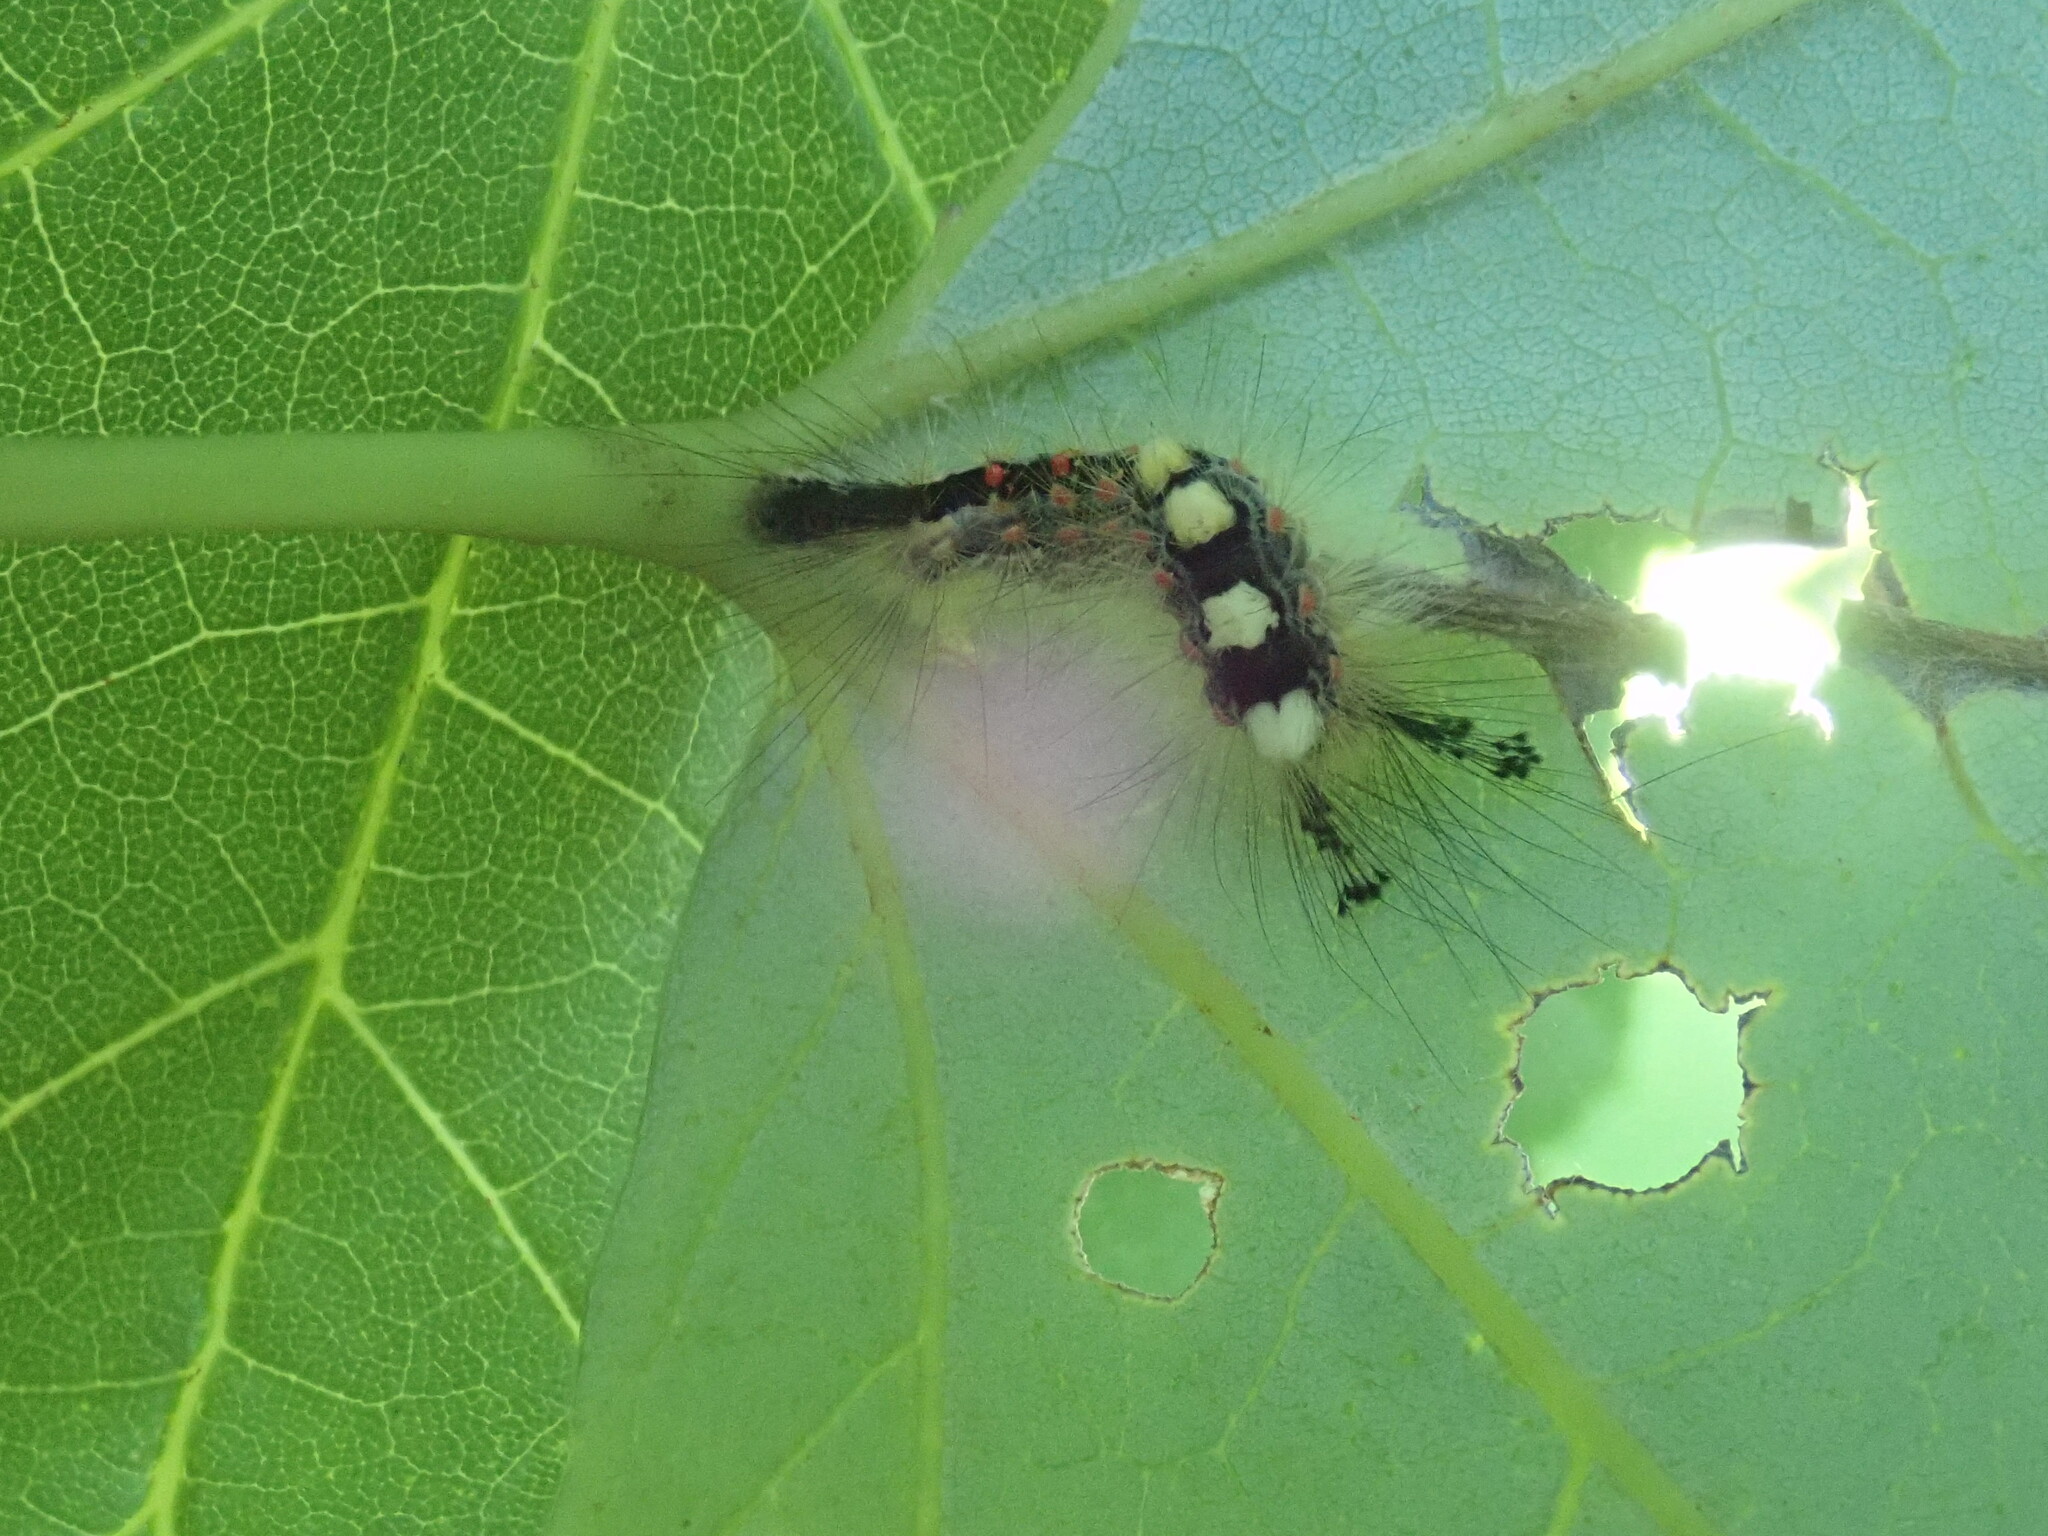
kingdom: Animalia
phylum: Arthropoda
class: Insecta
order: Lepidoptera
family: Erebidae
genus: Orgyia
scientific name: Orgyia antiqua
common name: Vapourer
